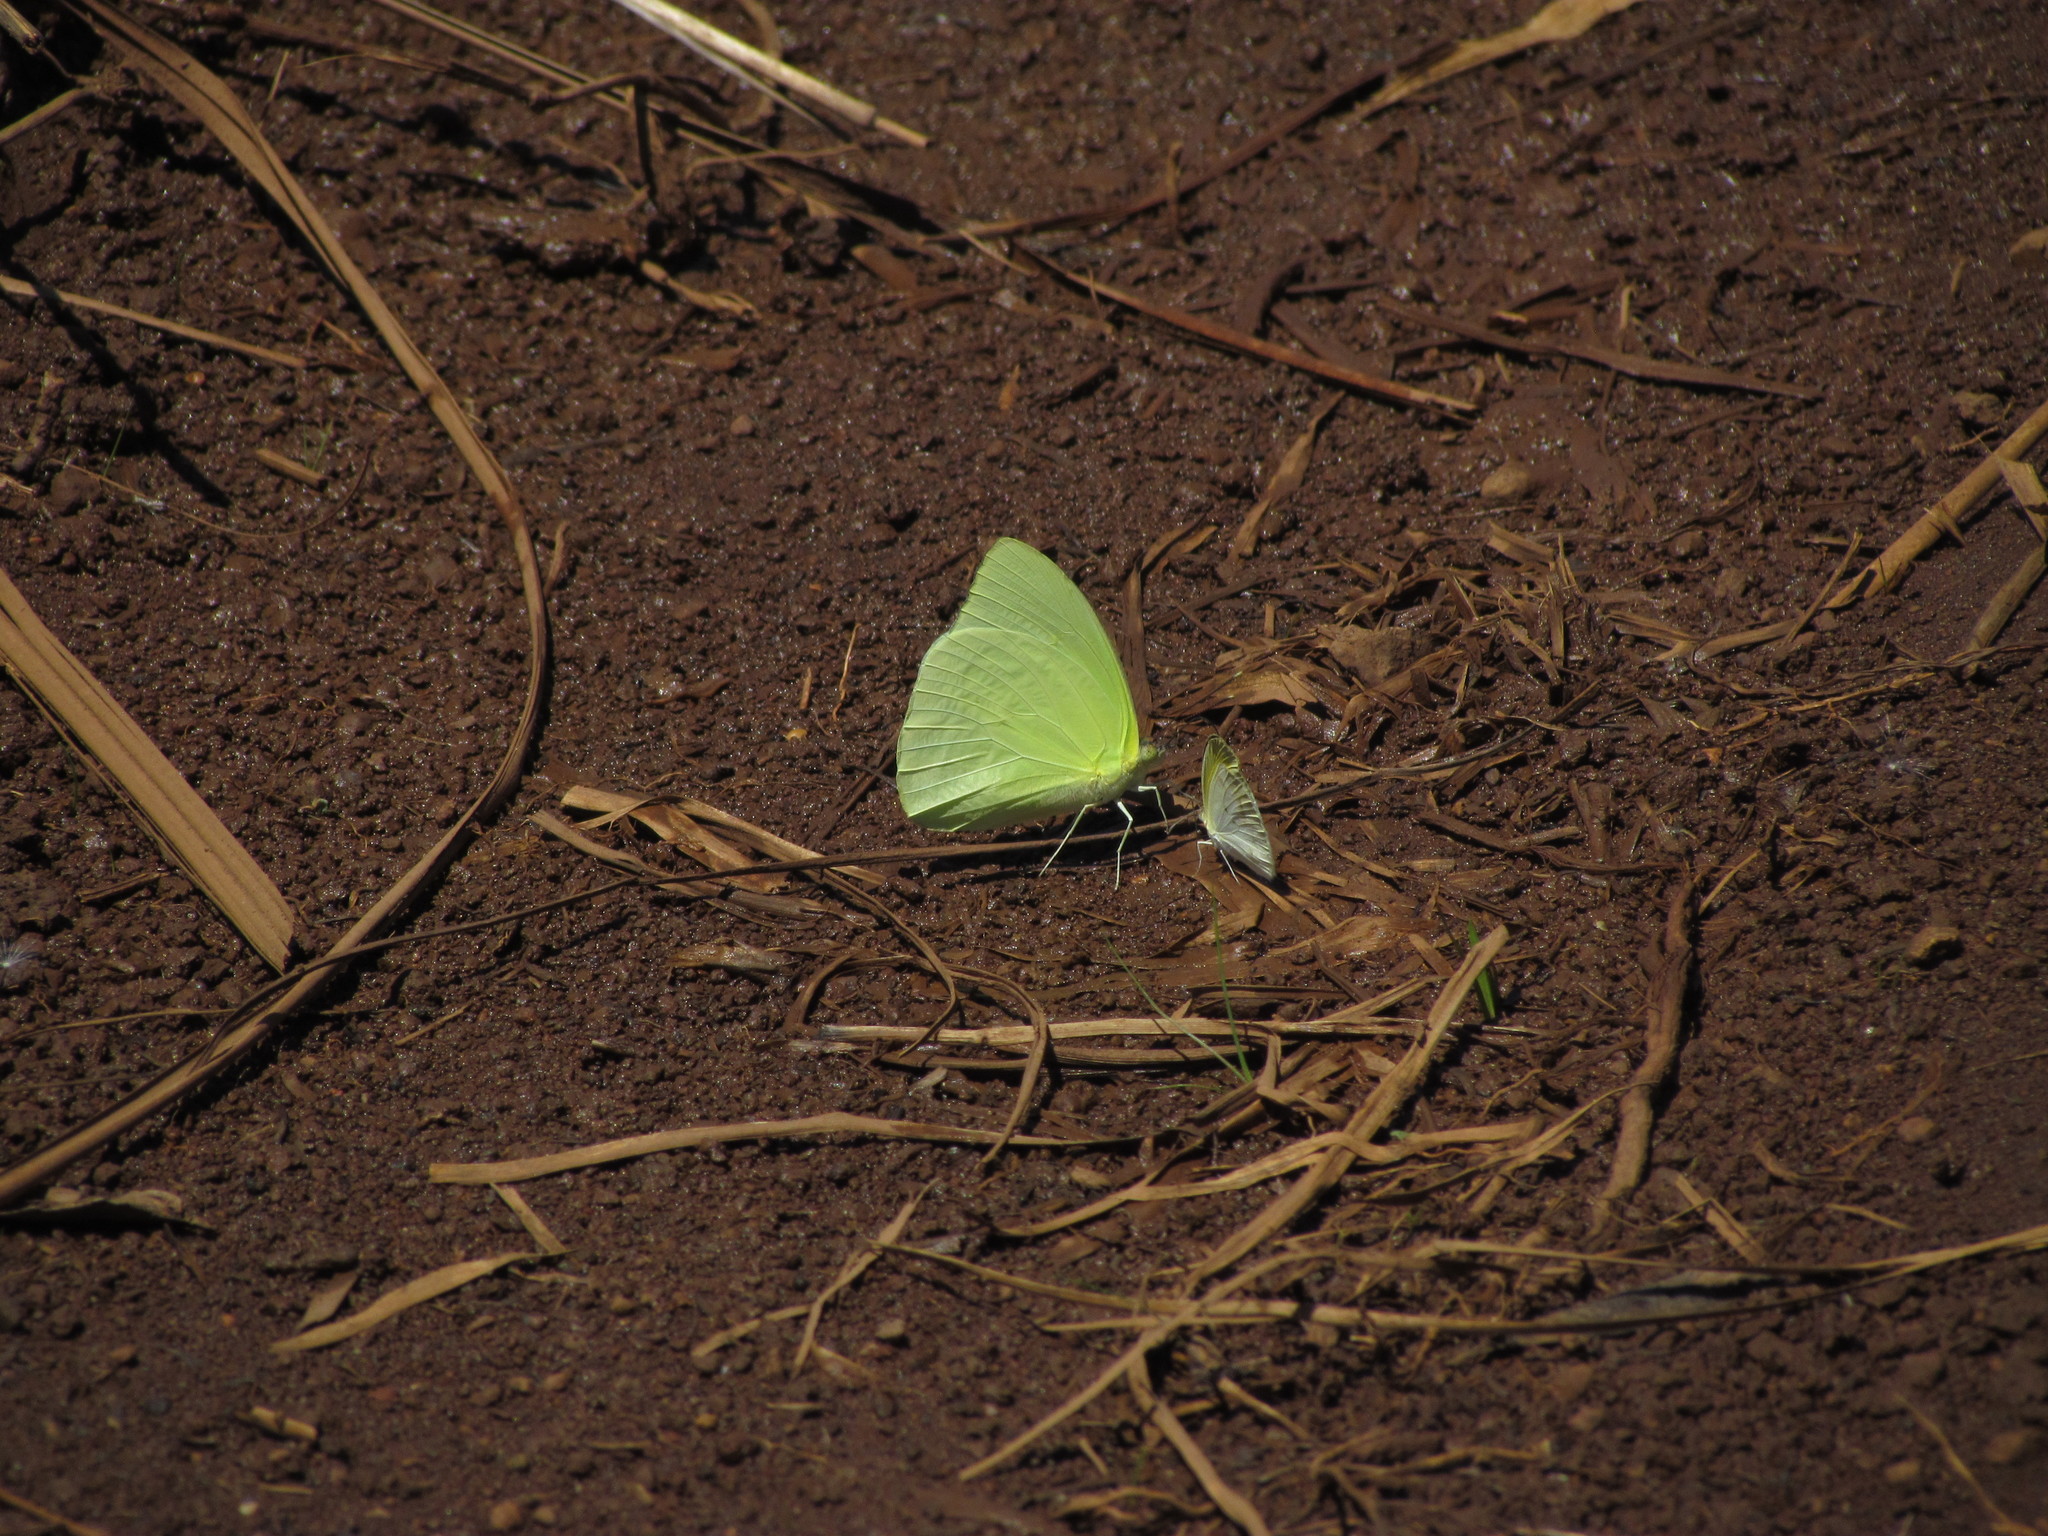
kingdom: Animalia
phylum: Arthropoda
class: Insecta
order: Lepidoptera
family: Pieridae
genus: Aphrissa
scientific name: Aphrissa statira
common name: Statira sulphur
